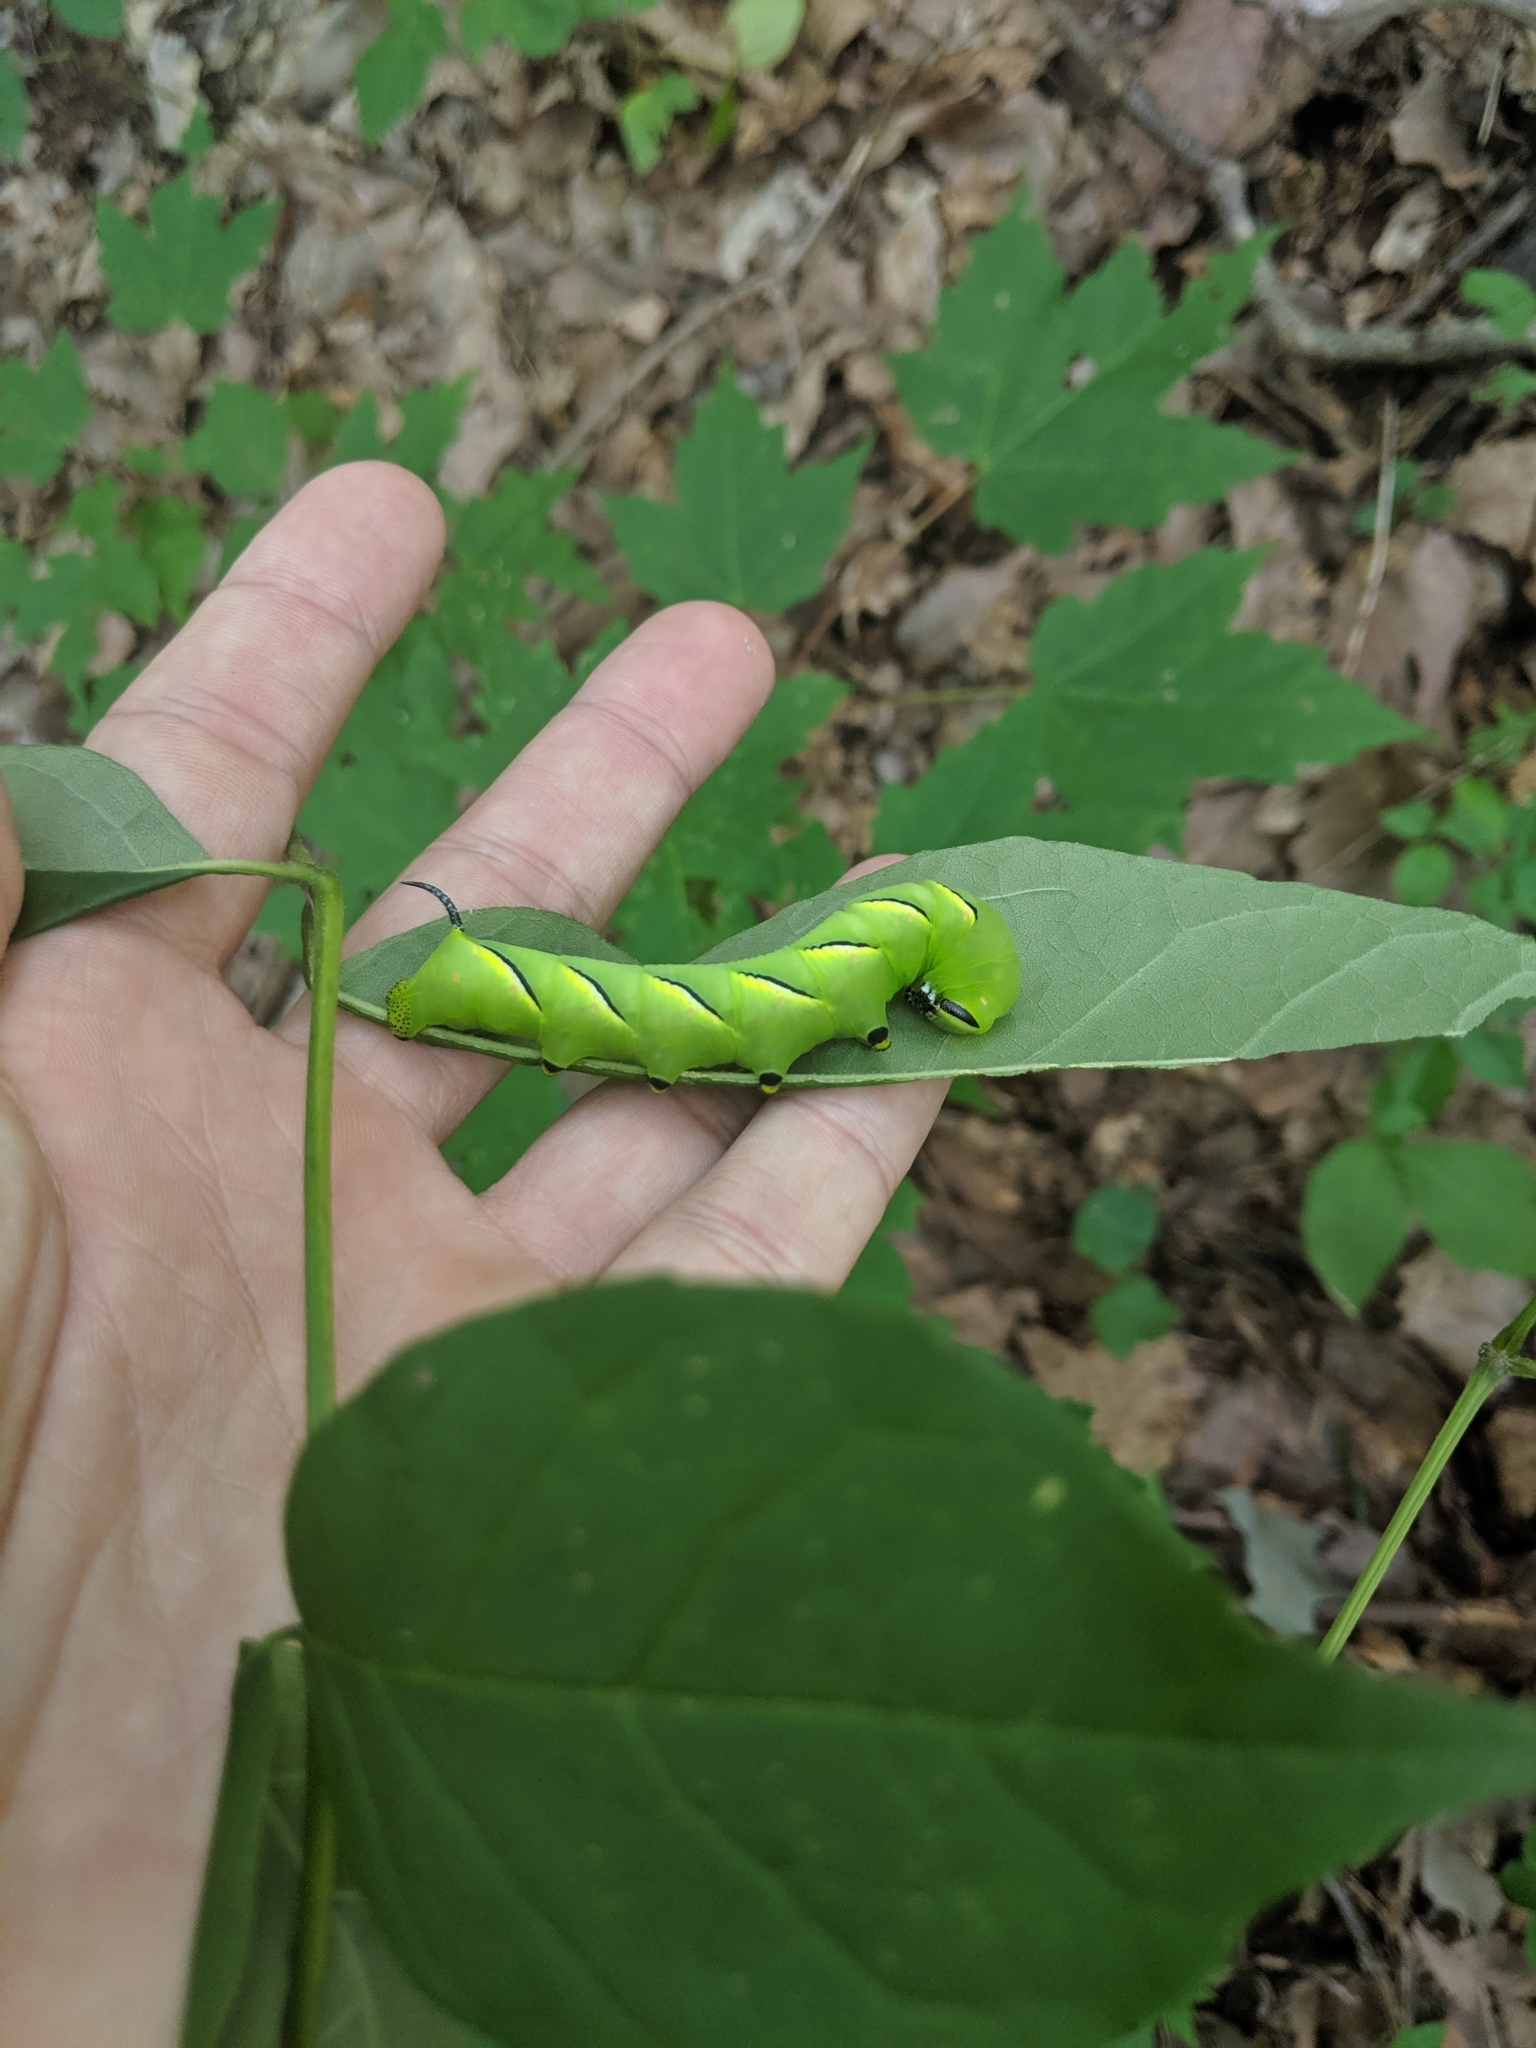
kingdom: Animalia
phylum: Arthropoda
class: Insecta
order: Lepidoptera
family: Sphingidae
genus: Sphinx
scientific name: Sphinx kalmiae
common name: Laurel sphinx
